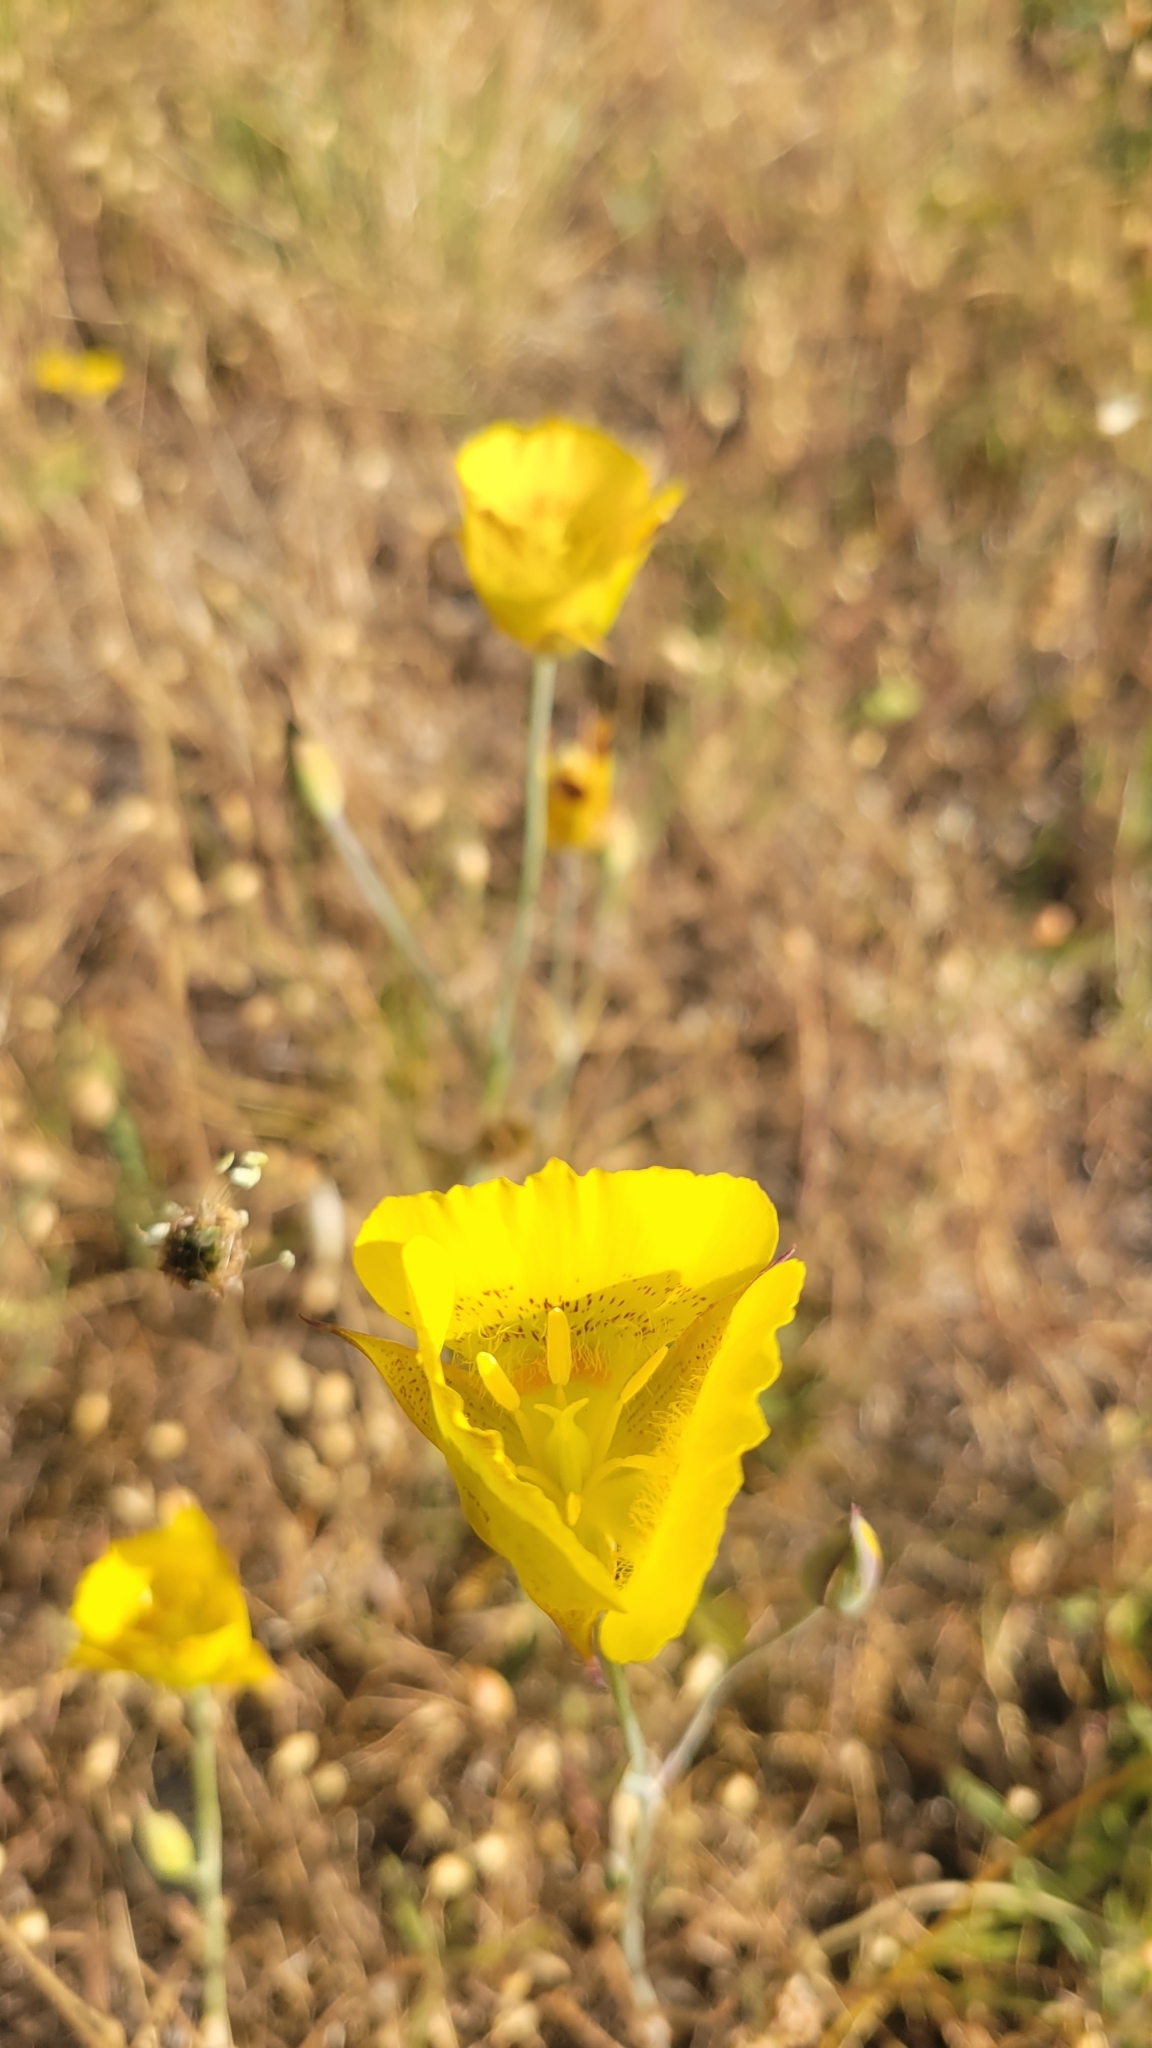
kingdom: Plantae
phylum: Tracheophyta
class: Liliopsida
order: Liliales
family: Liliaceae
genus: Calochortus
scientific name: Calochortus luteus
